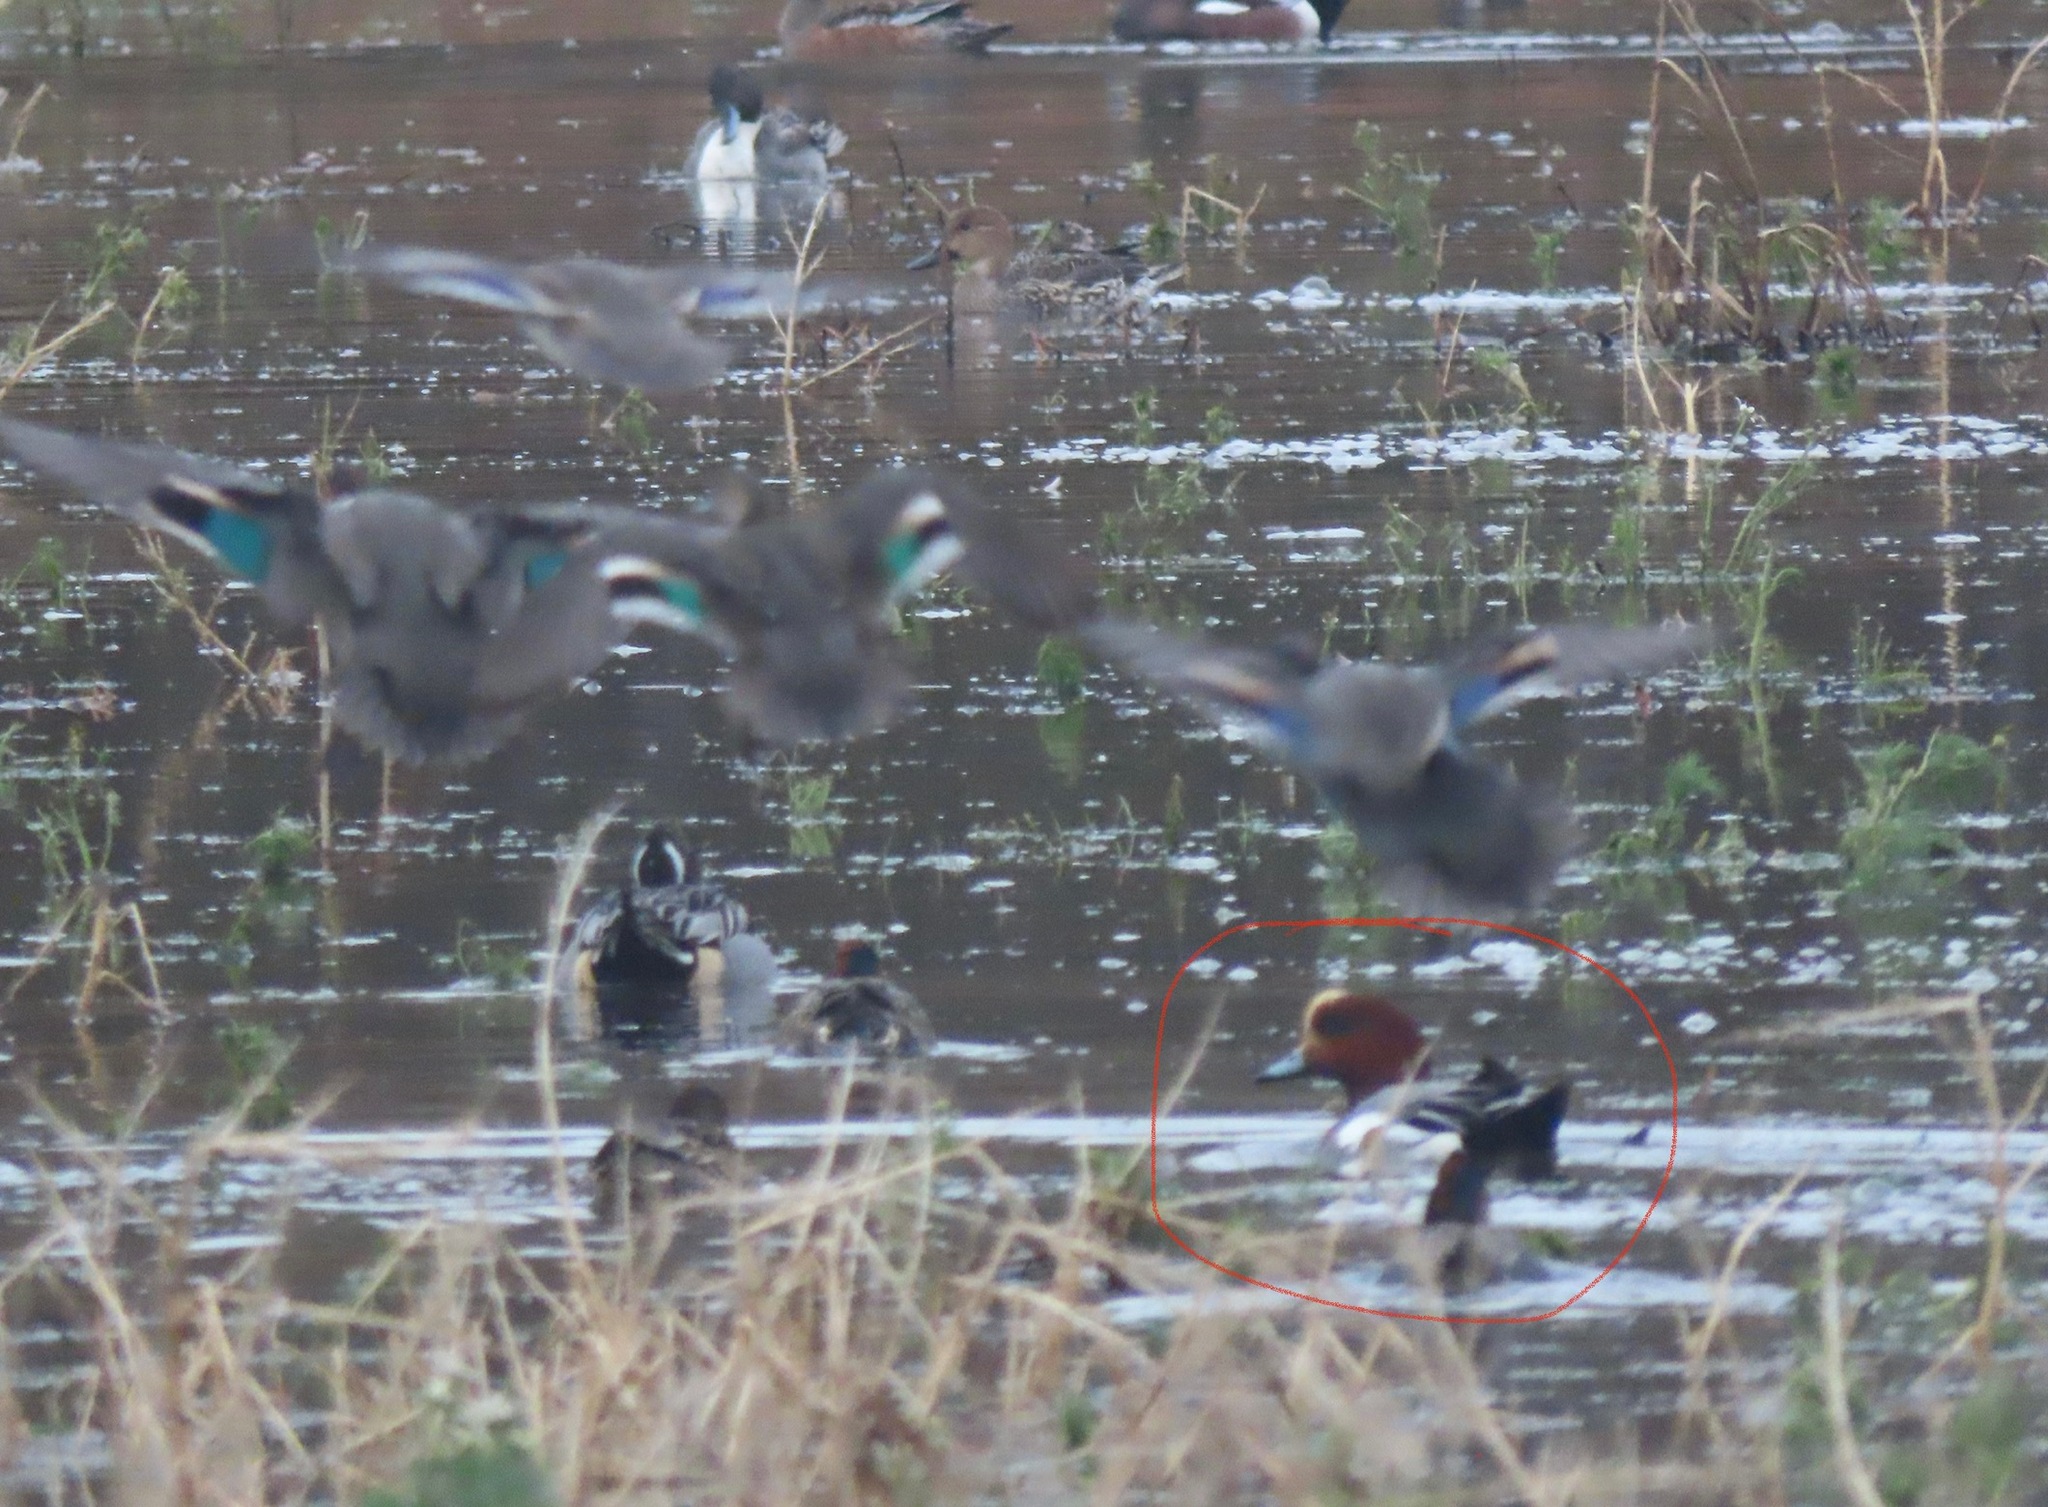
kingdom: Animalia
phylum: Chordata
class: Aves
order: Anseriformes
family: Anatidae
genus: Mareca
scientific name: Mareca penelope
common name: Eurasian wigeon
